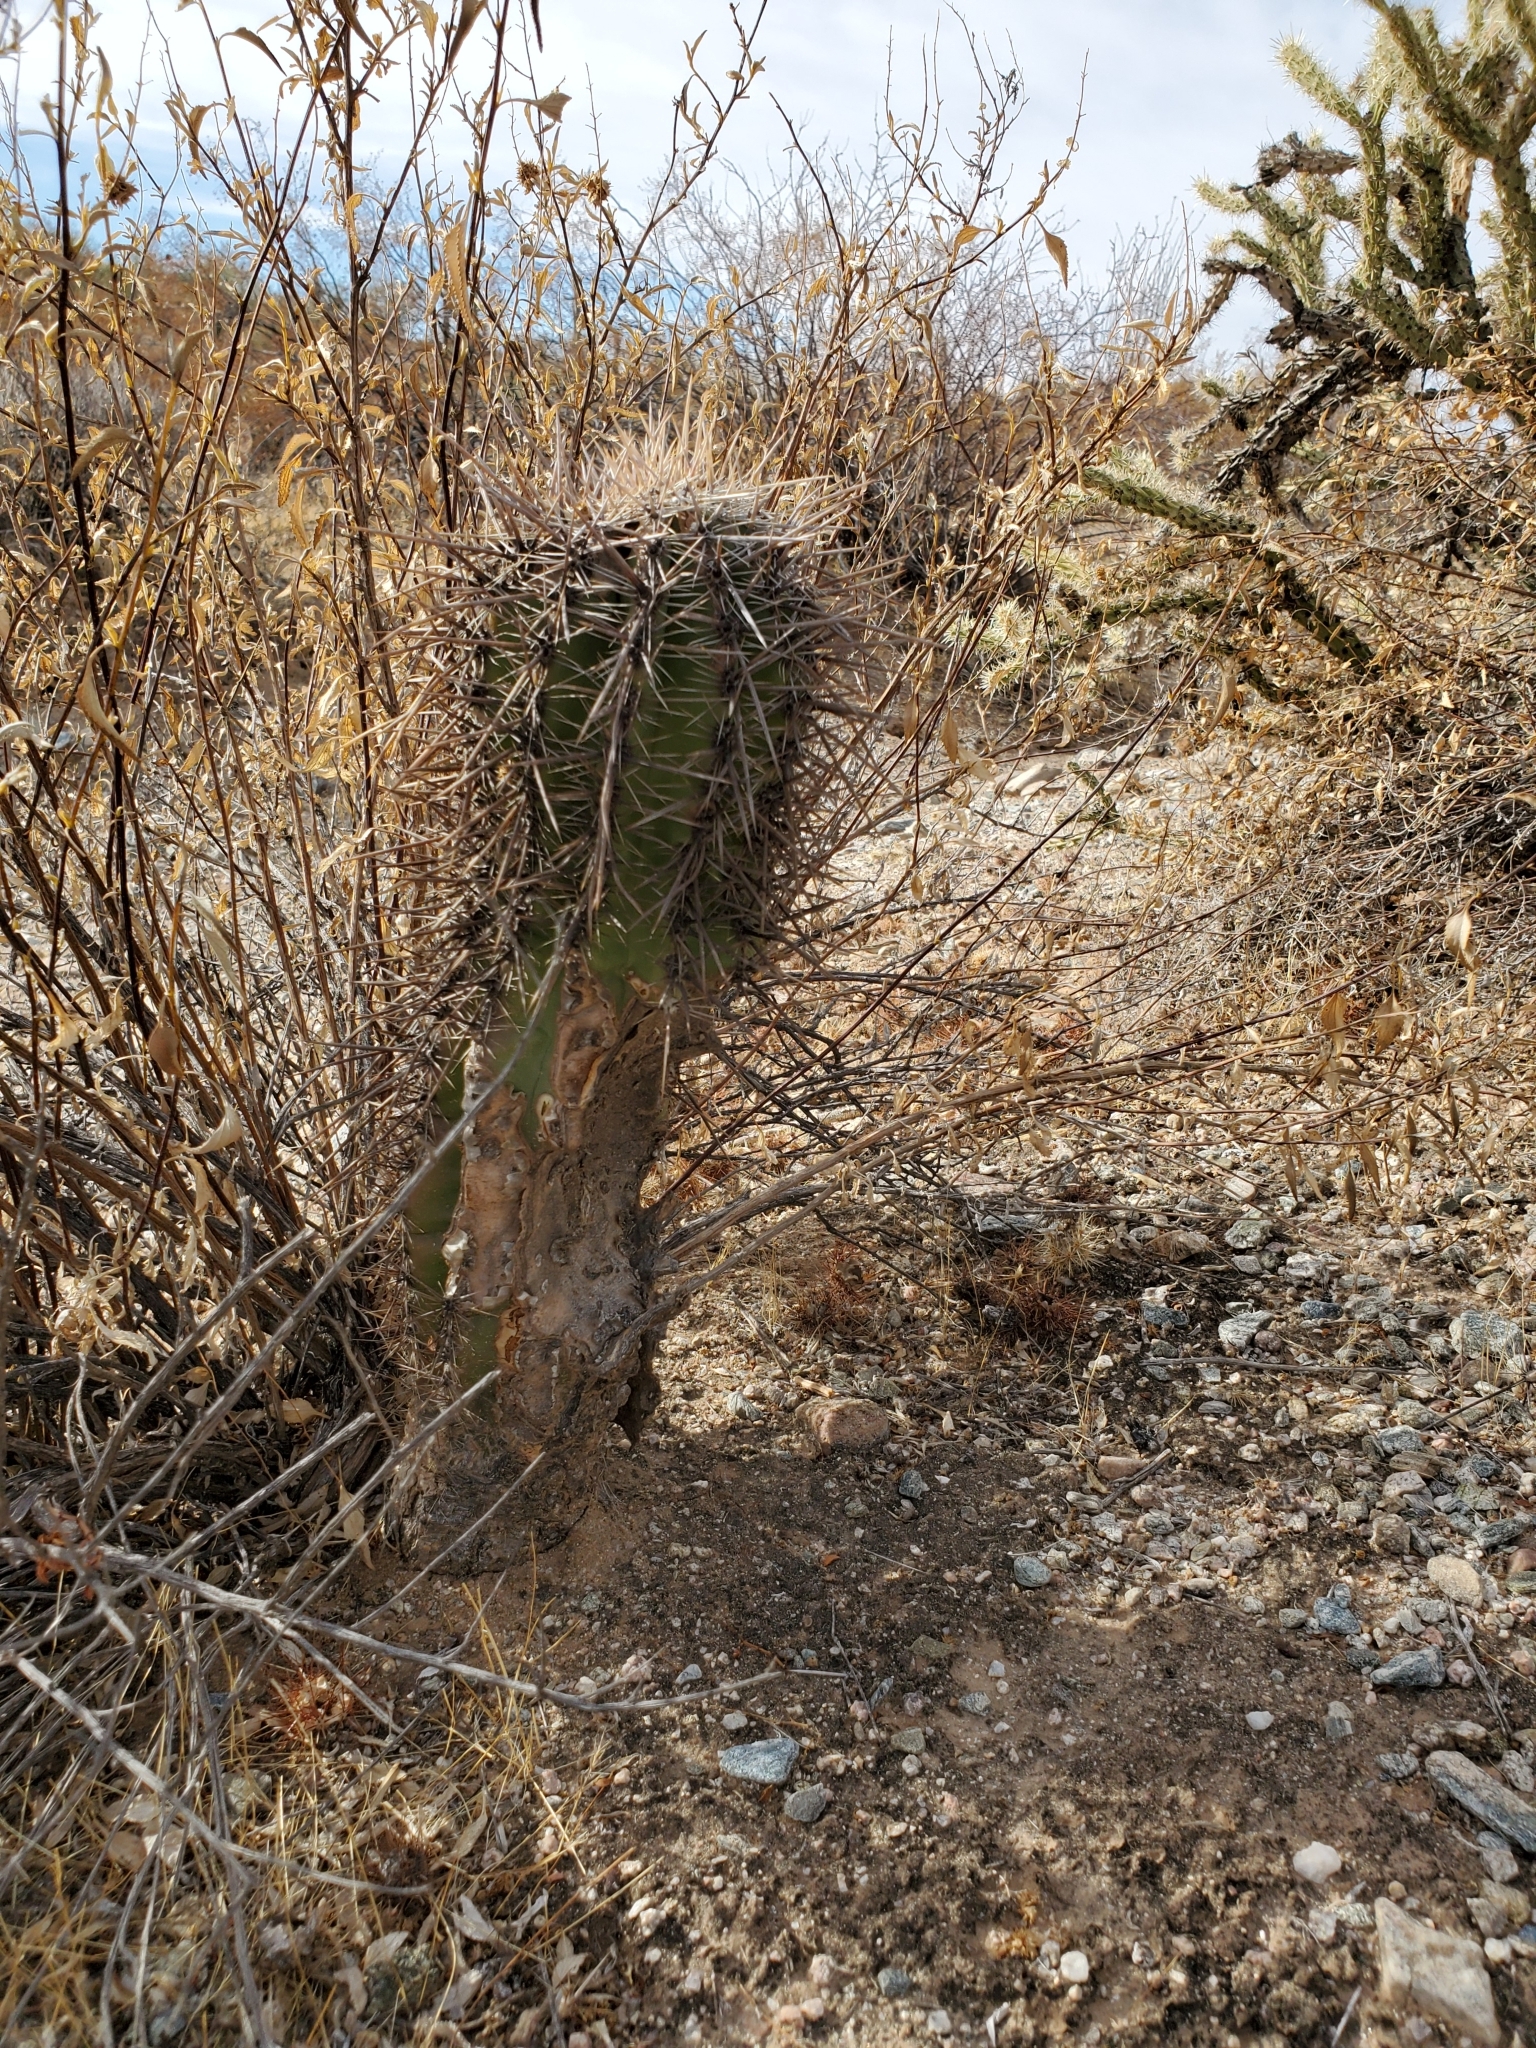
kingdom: Plantae
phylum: Tracheophyta
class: Magnoliopsida
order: Caryophyllales
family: Cactaceae
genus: Carnegiea
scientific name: Carnegiea gigantea
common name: Saguaro
